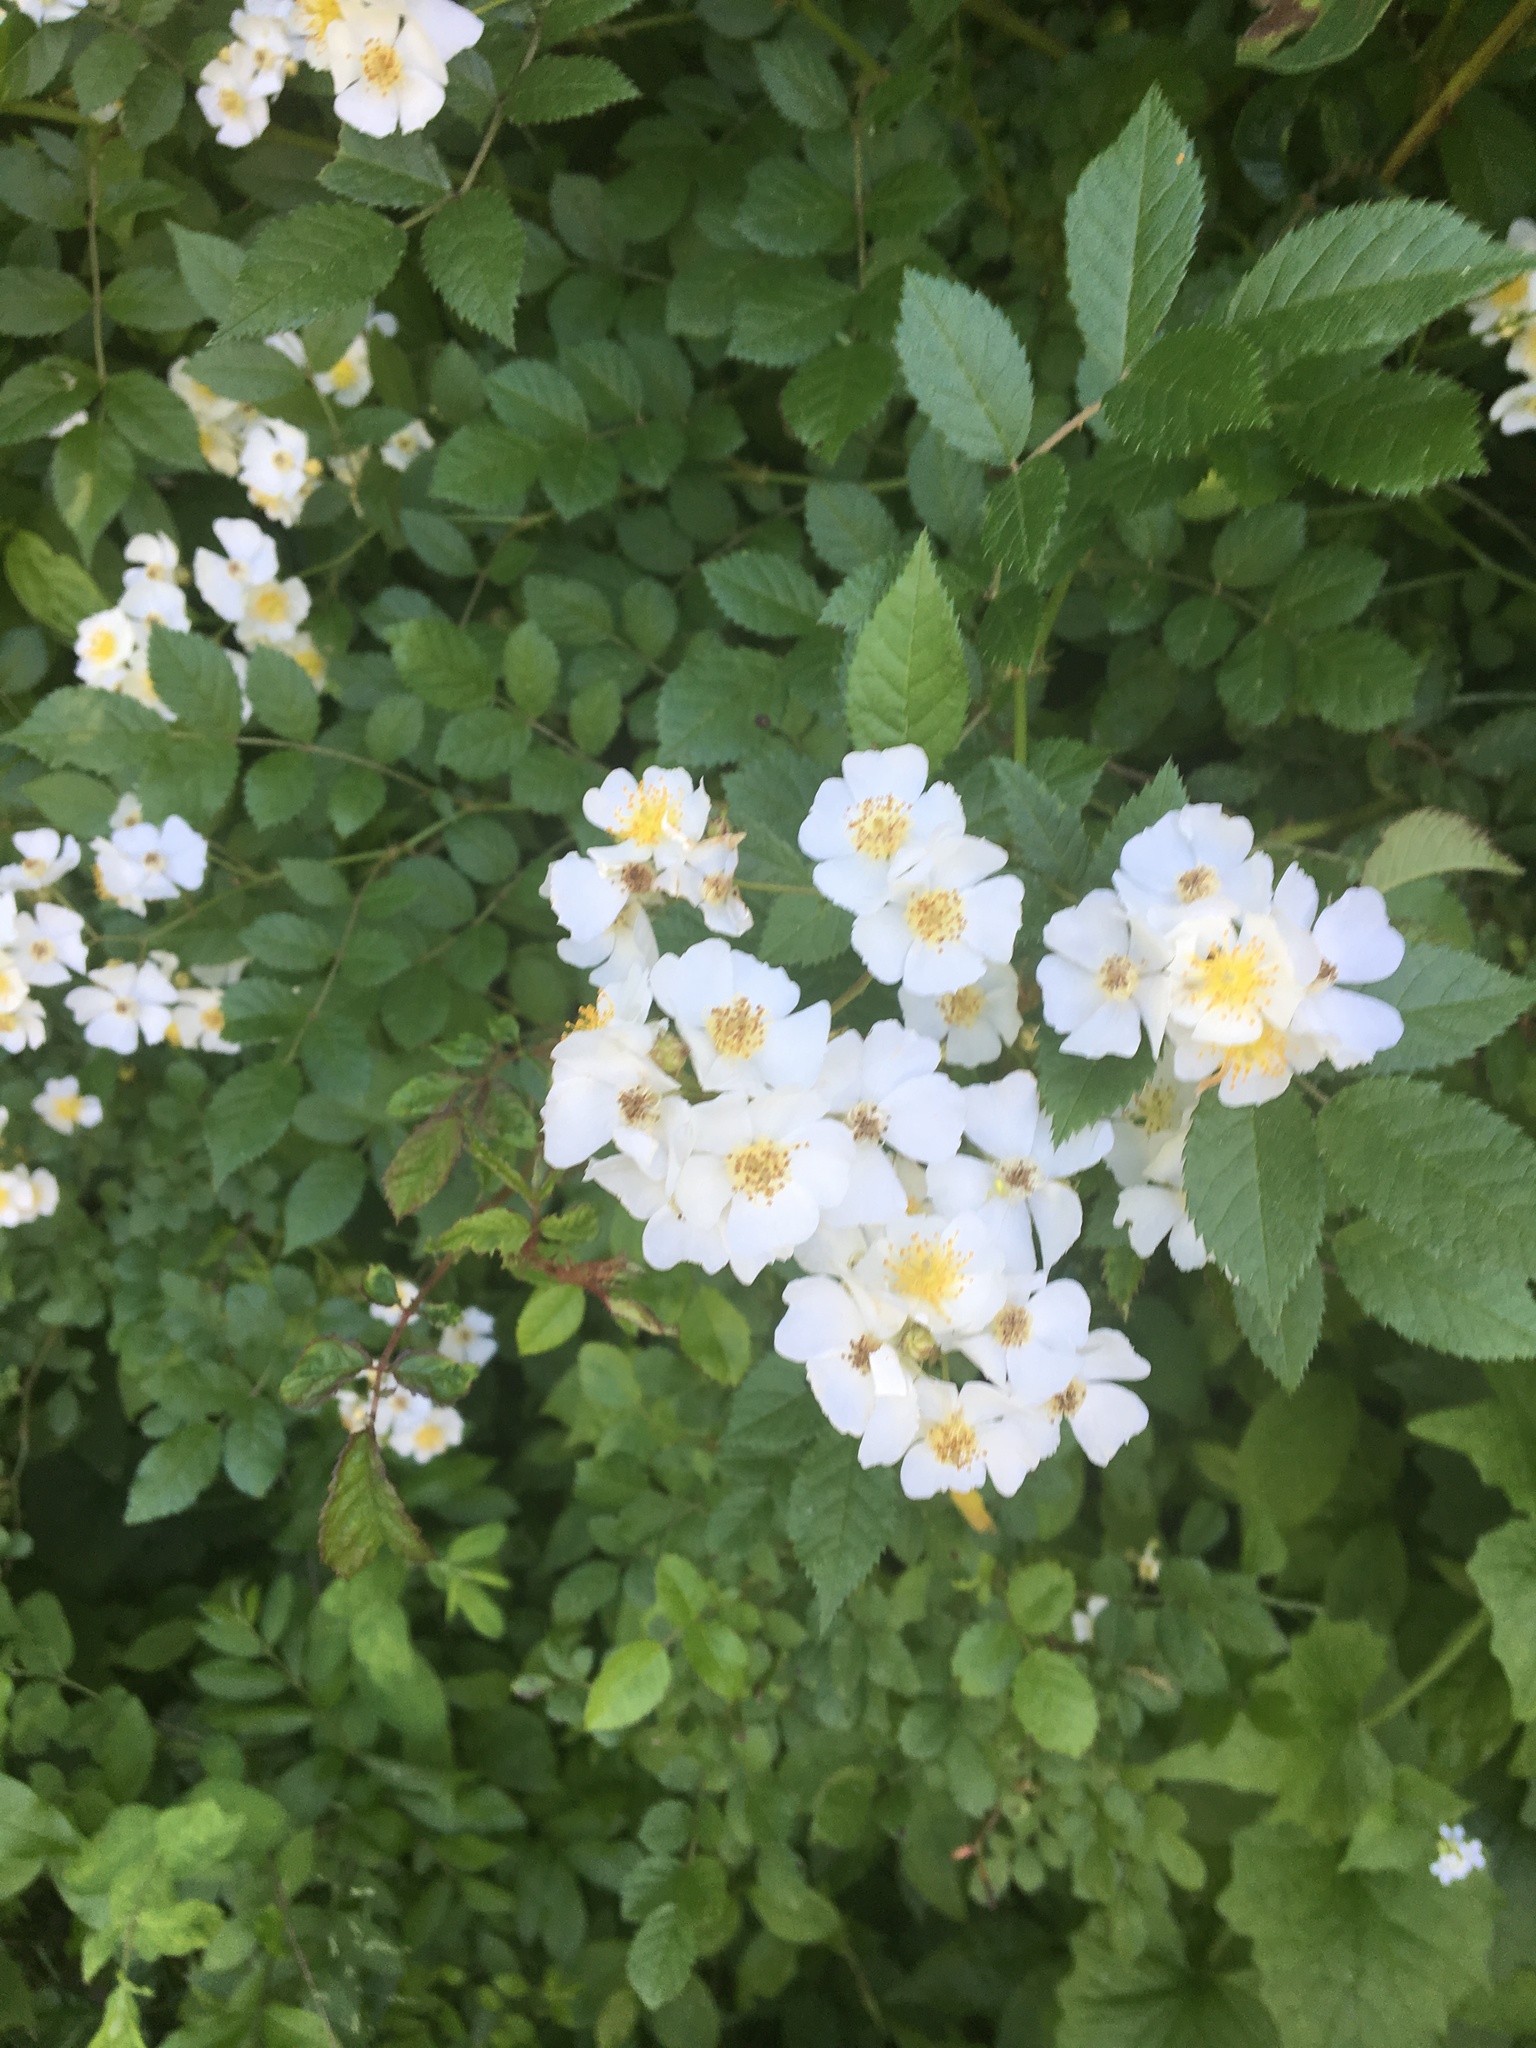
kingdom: Plantae
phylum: Tracheophyta
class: Magnoliopsida
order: Rosales
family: Rosaceae
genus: Rosa
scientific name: Rosa multiflora
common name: Multiflora rose
